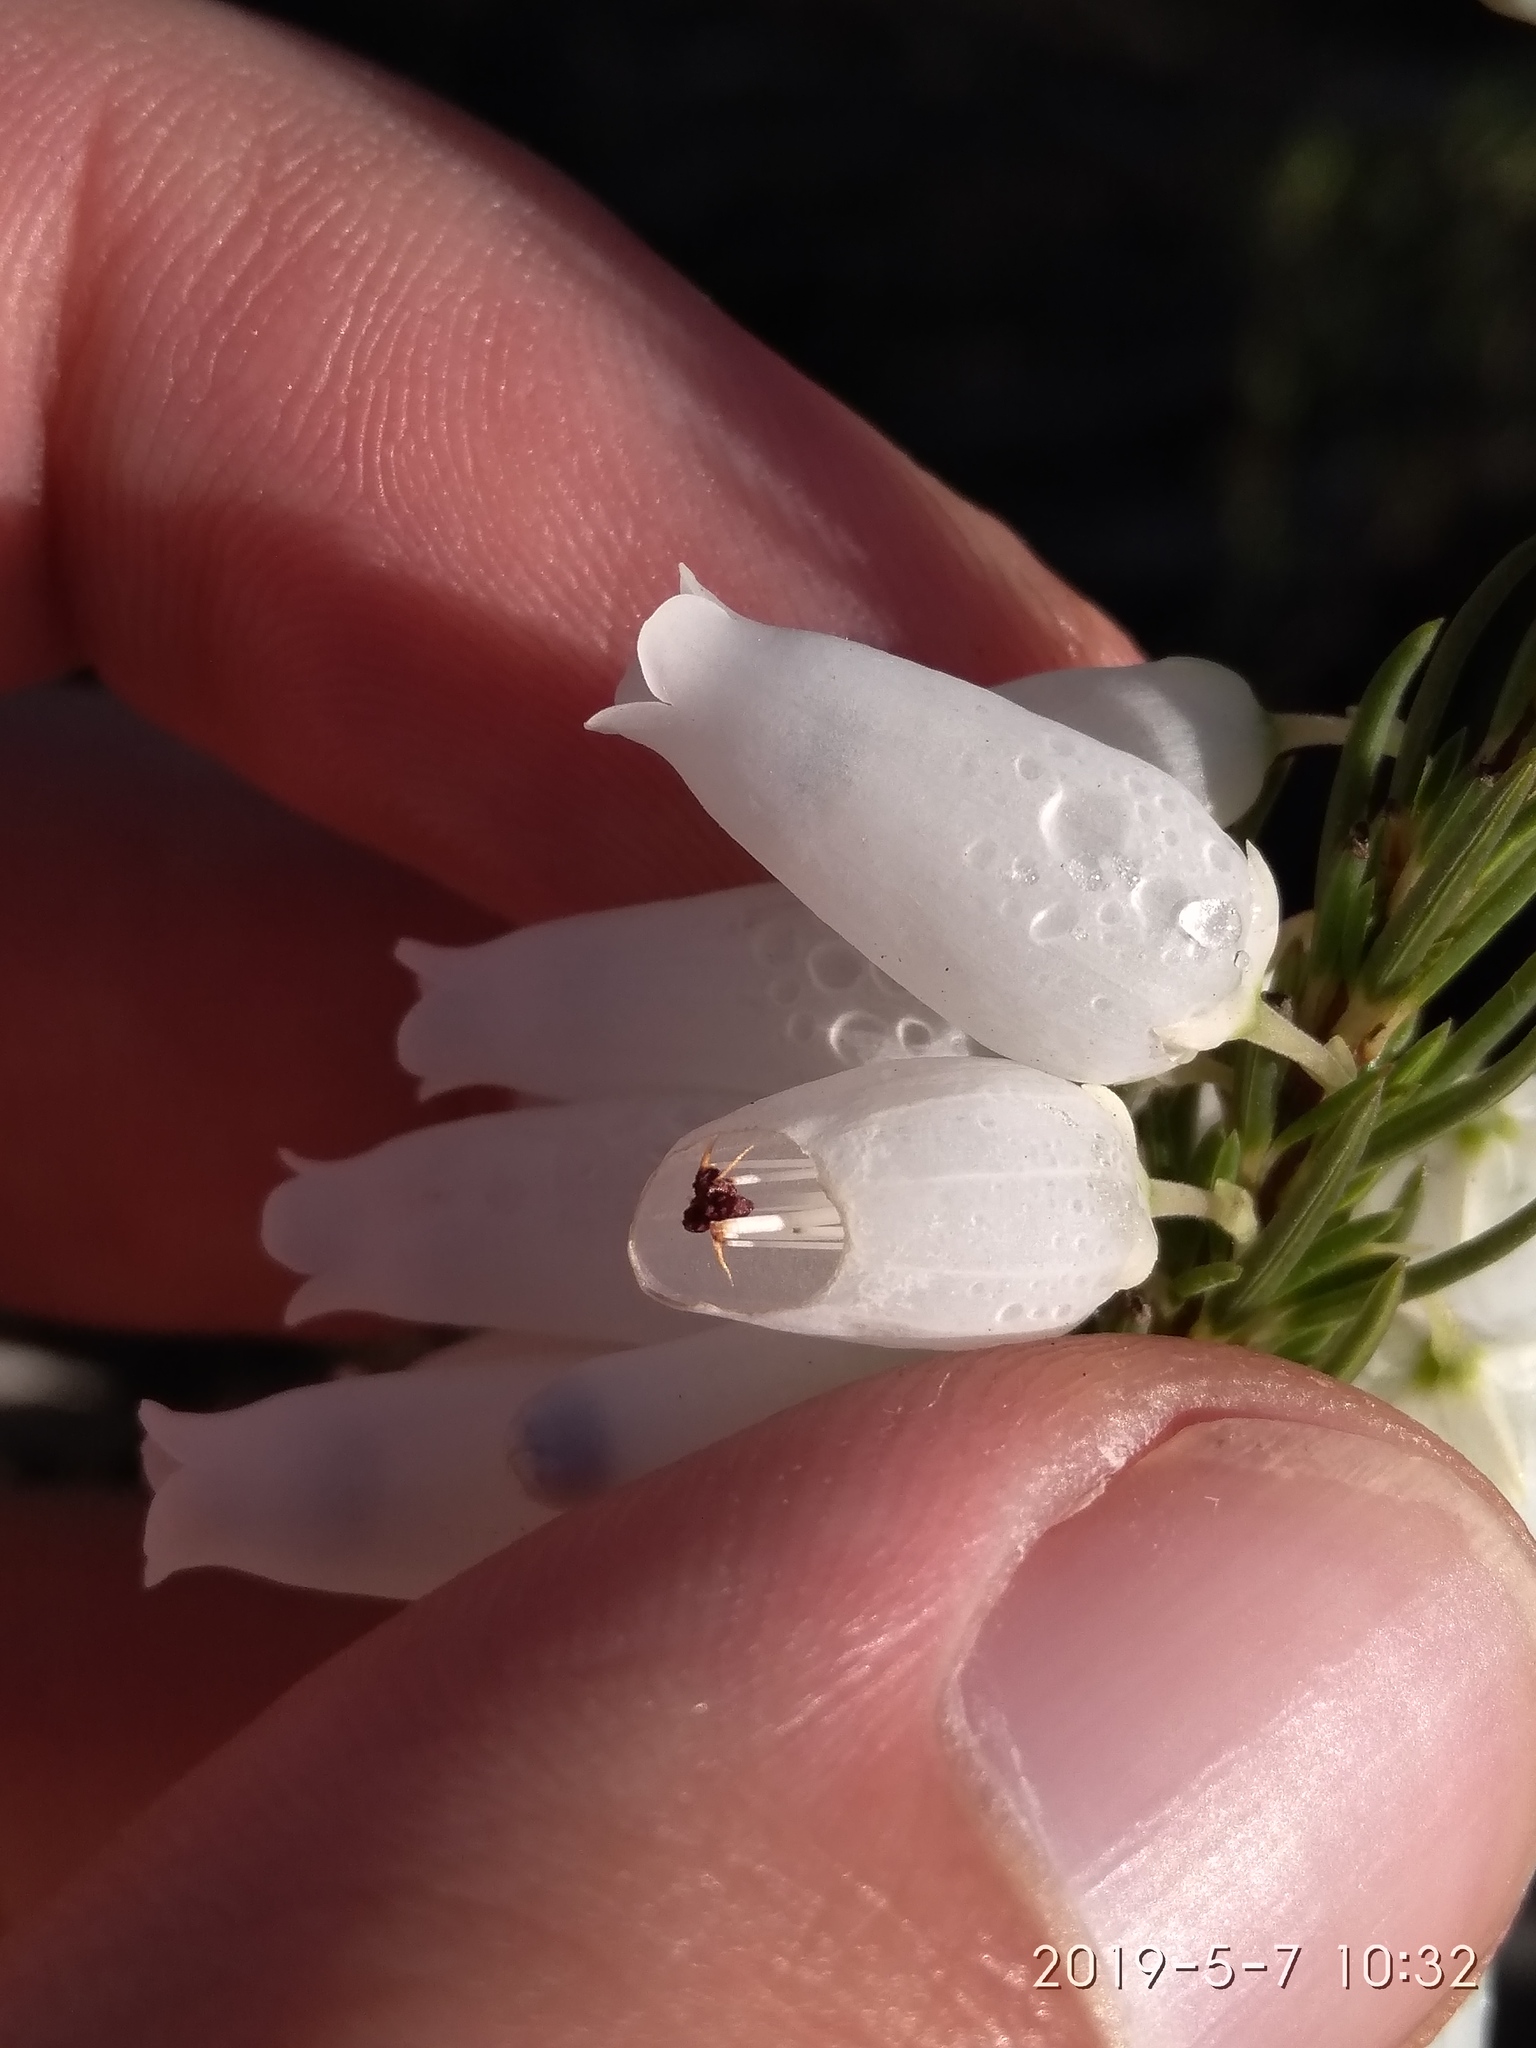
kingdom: Plantae
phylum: Tracheophyta
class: Magnoliopsida
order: Ericales
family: Ericaceae
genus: Erica
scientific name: Erica penduliflora
